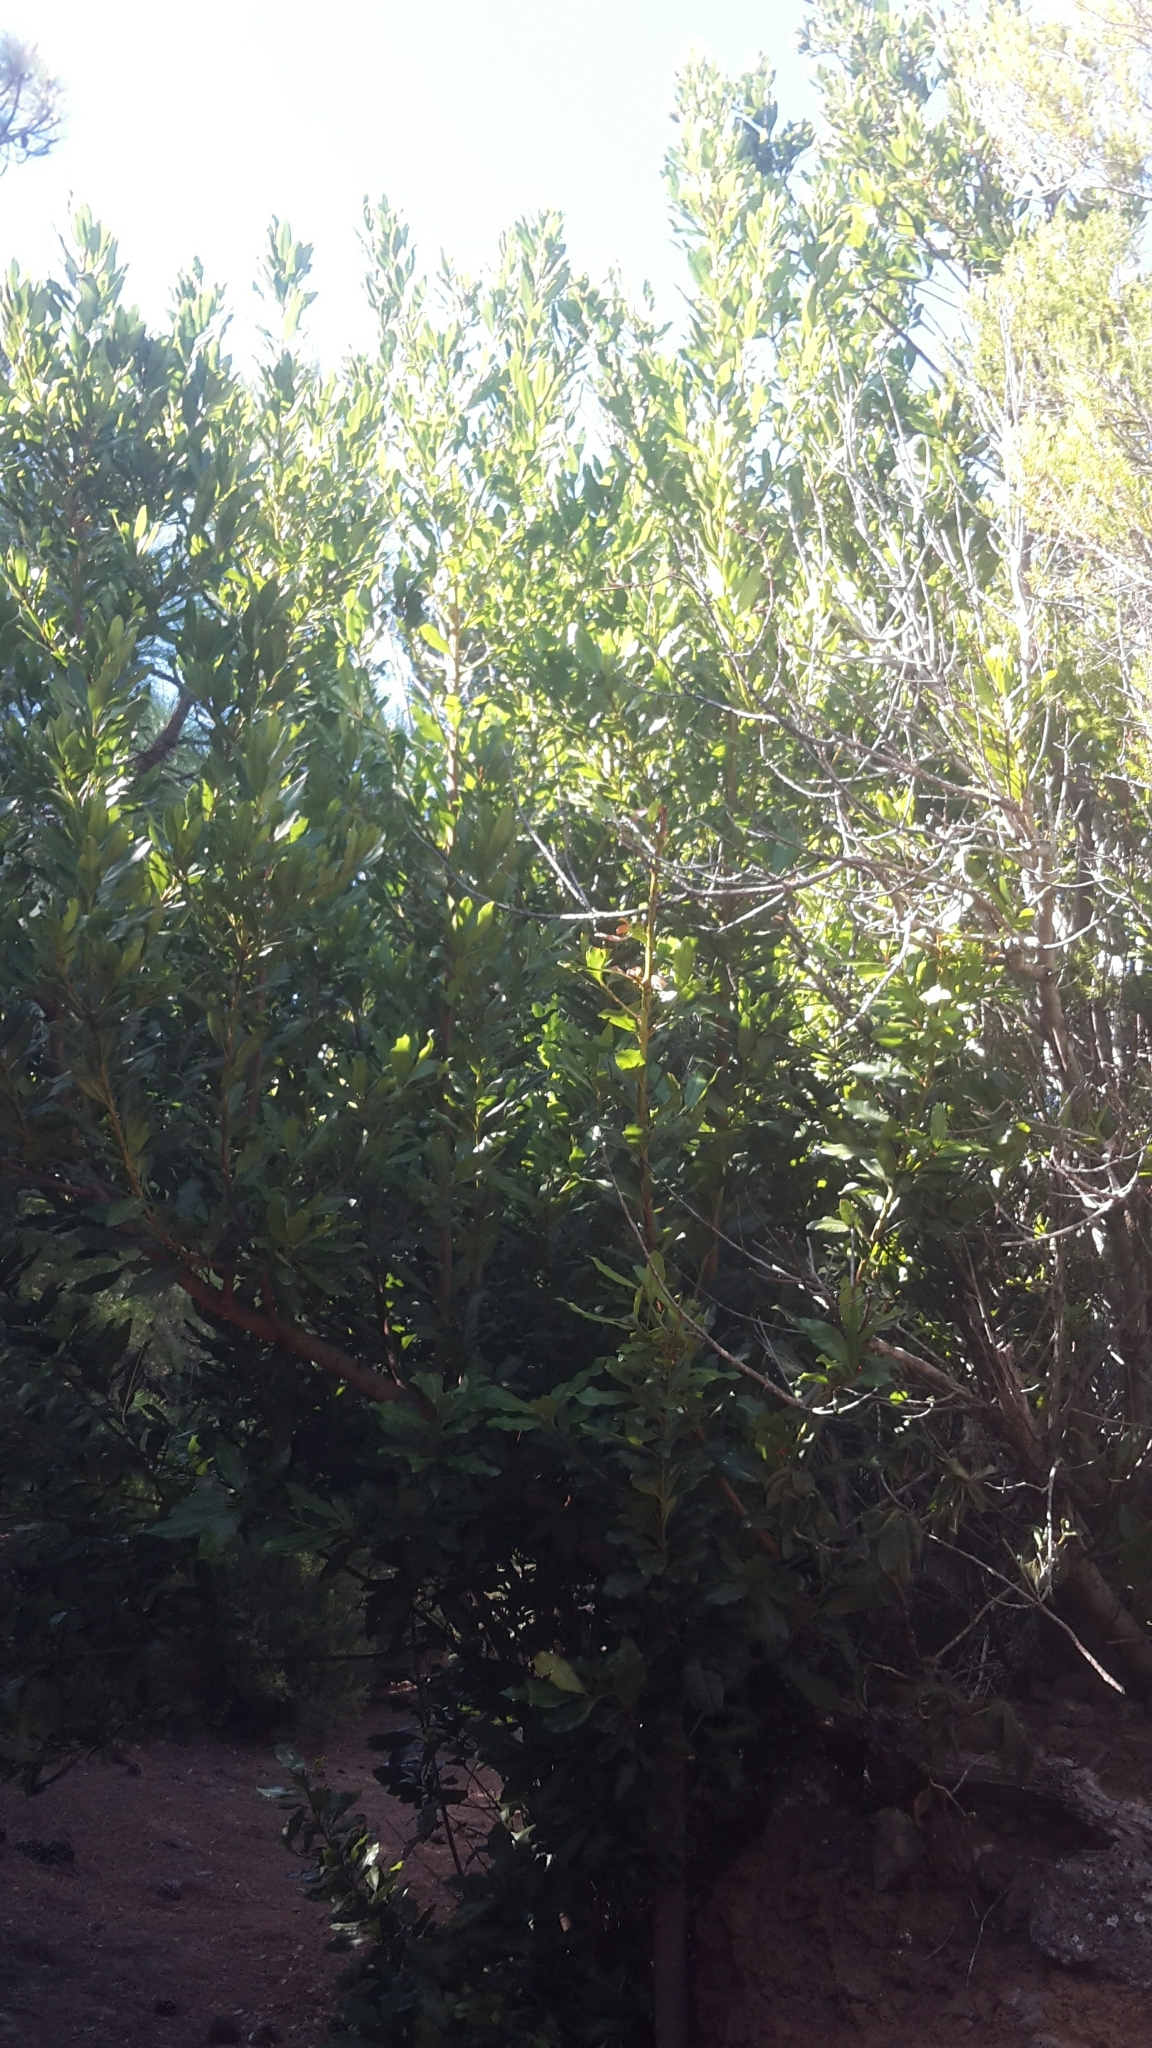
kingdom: Plantae
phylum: Tracheophyta
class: Magnoliopsida
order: Laurales
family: Lauraceae
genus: Laurus
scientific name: Laurus novocanariensis
